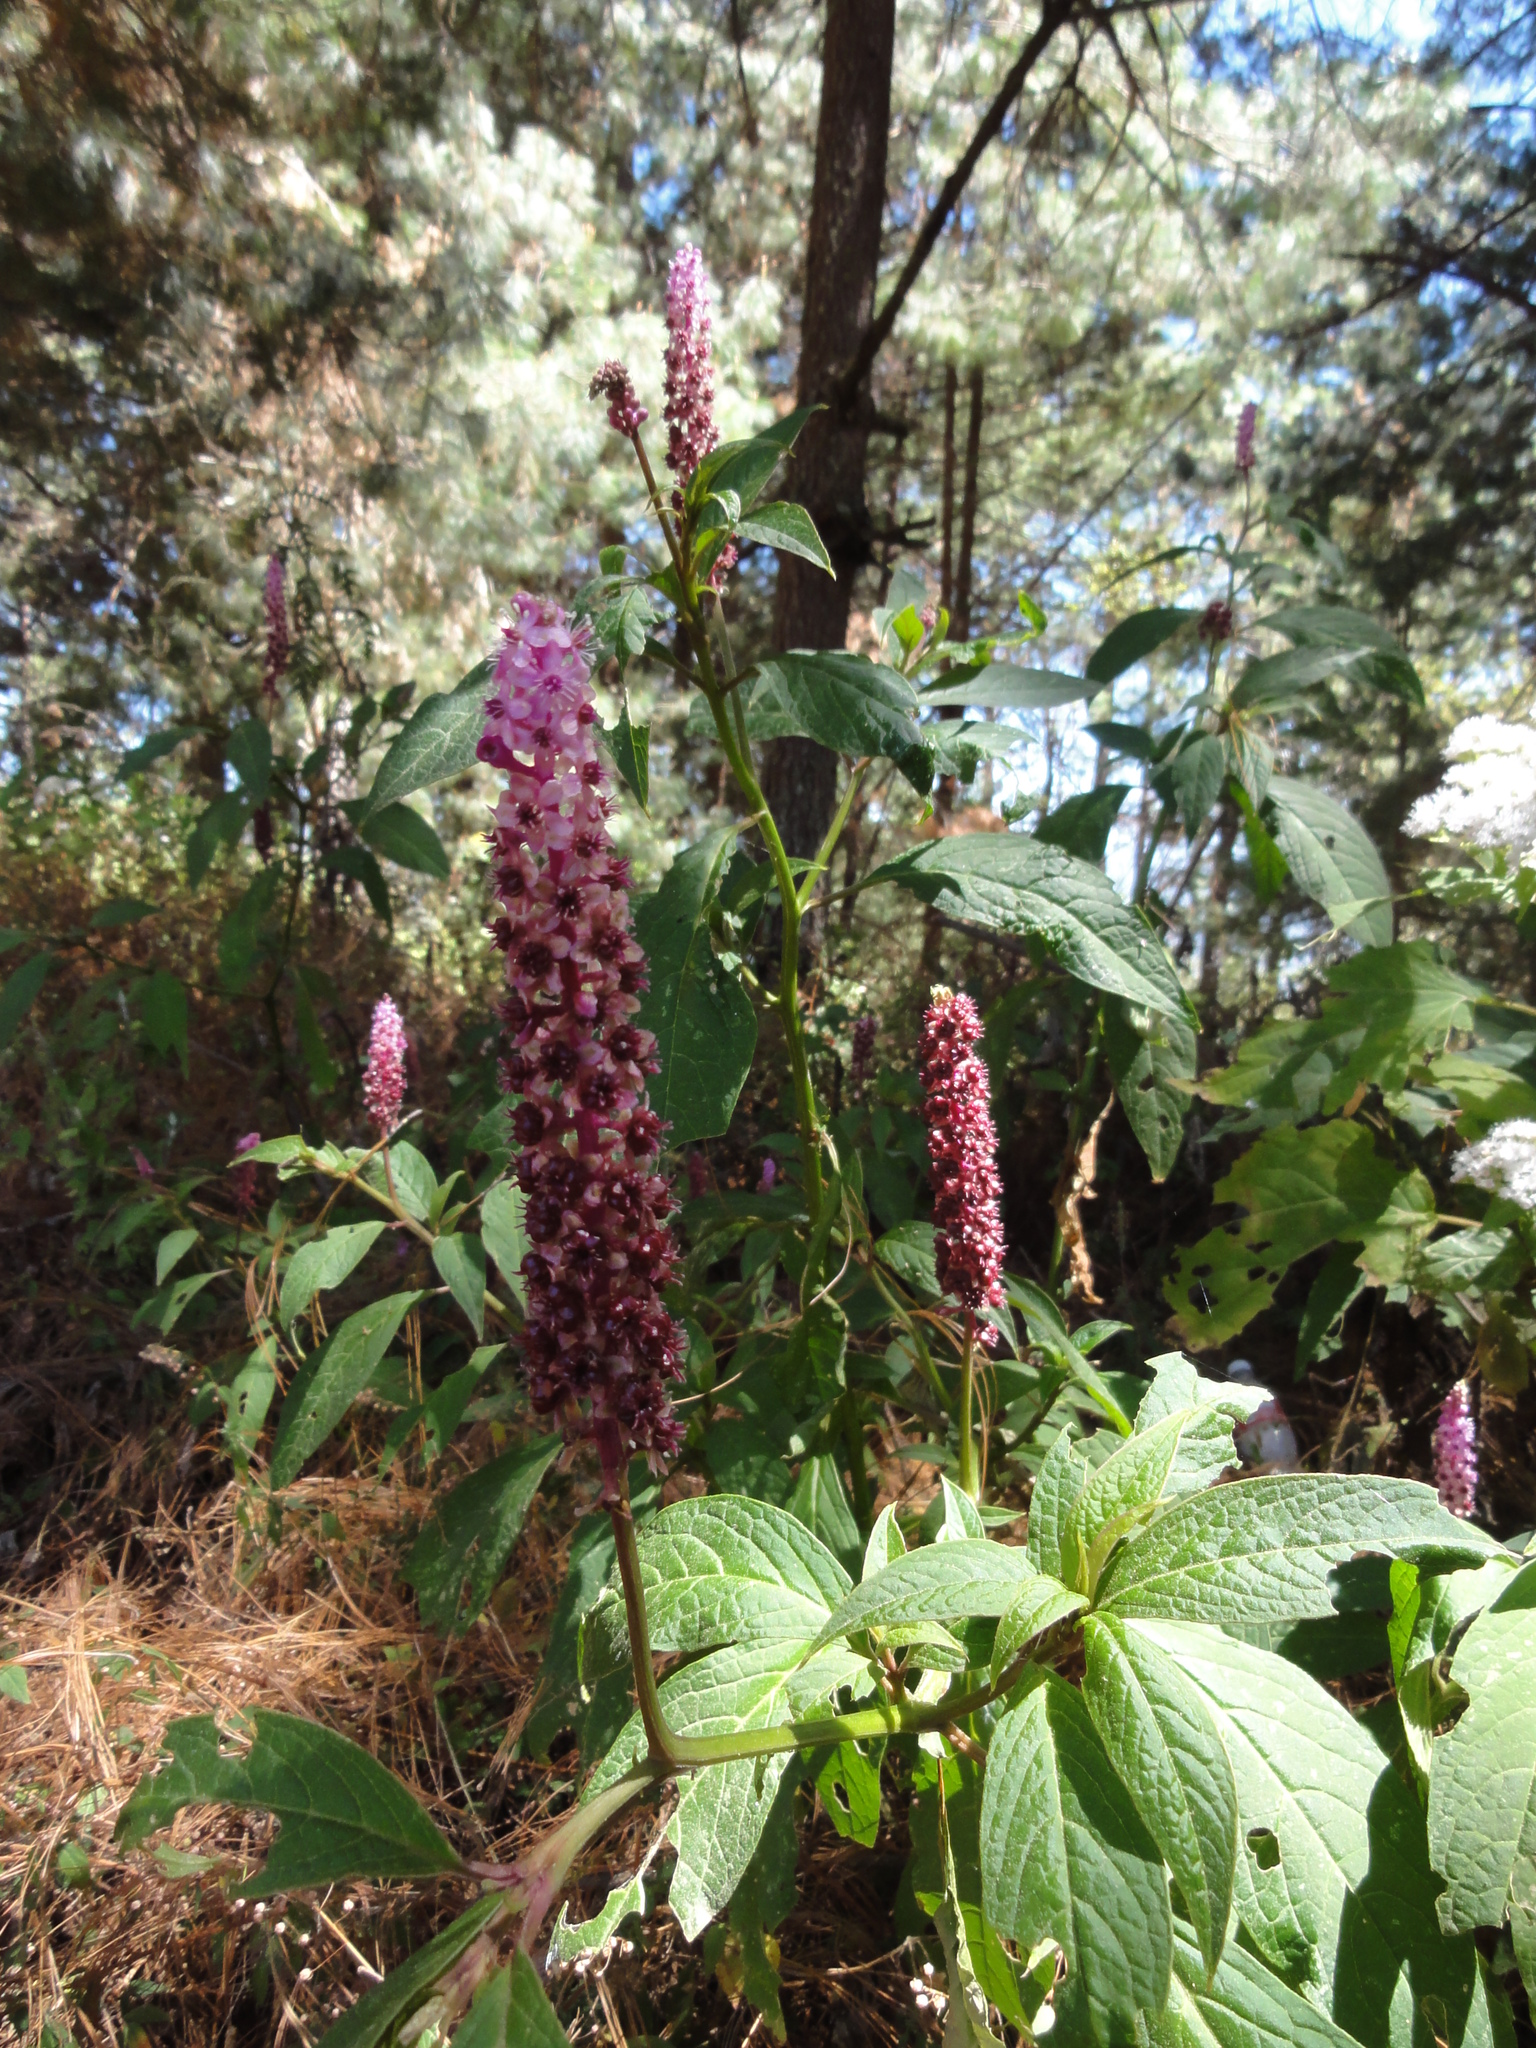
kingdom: Plantae
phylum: Tracheophyta
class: Magnoliopsida
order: Caryophyllales
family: Phytolaccaceae
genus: Phytolacca
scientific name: Phytolacca rugosa
